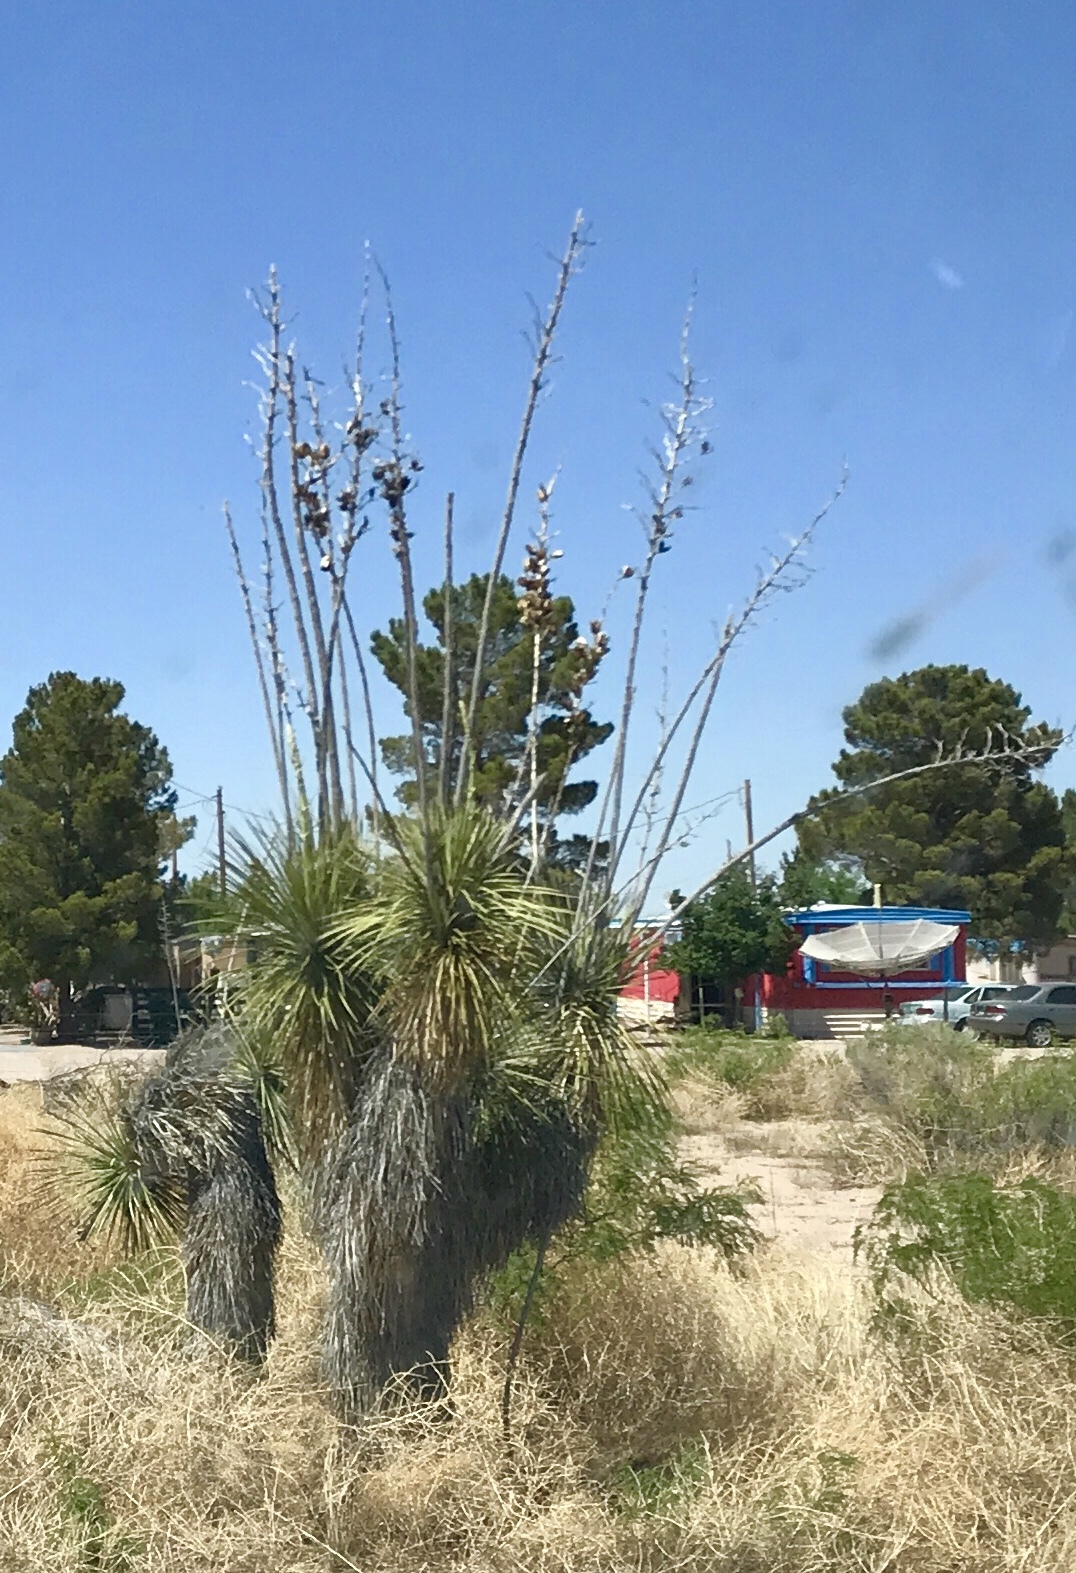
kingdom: Plantae
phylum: Tracheophyta
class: Liliopsida
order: Asparagales
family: Asparagaceae
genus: Yucca
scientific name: Yucca elata
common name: Palmella
